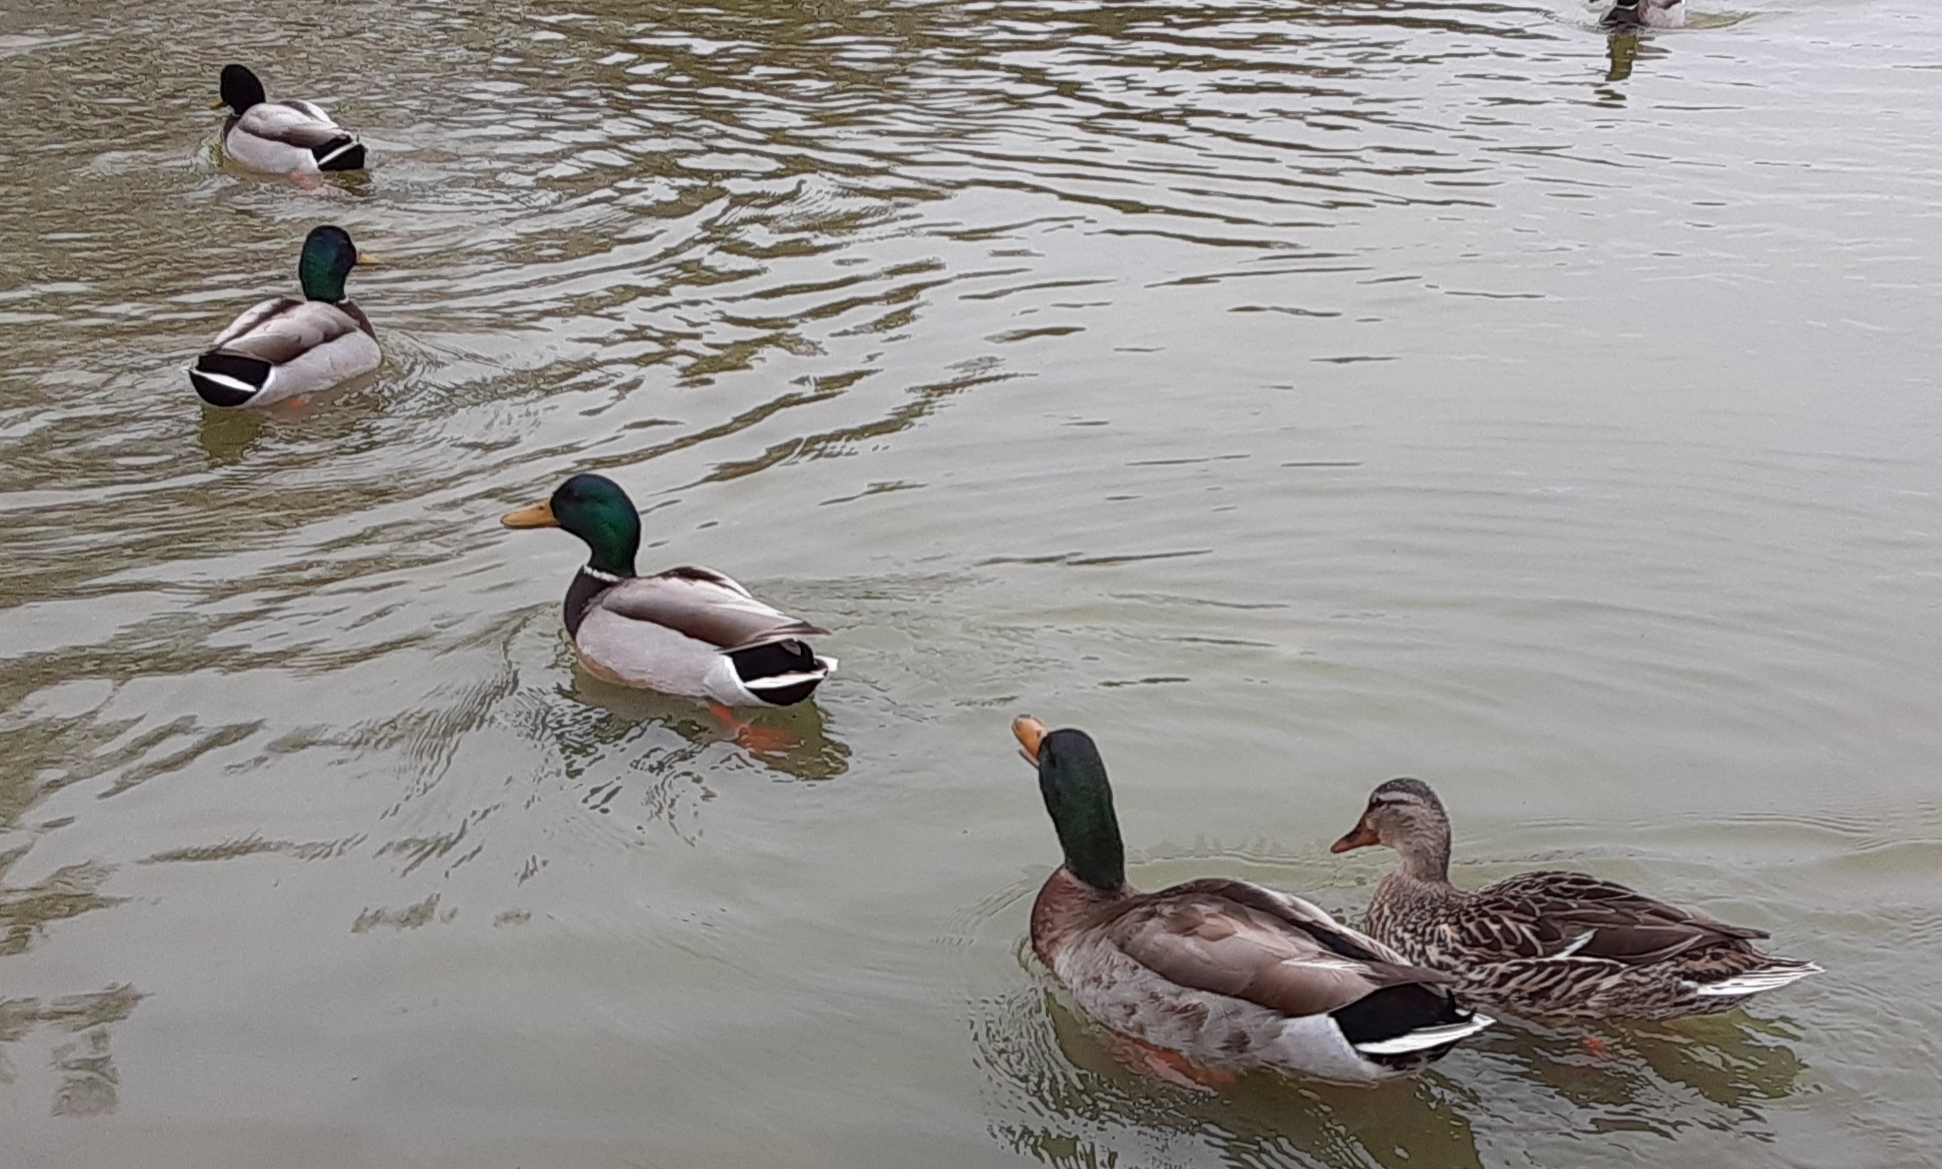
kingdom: Animalia
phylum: Chordata
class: Aves
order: Anseriformes
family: Anatidae
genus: Anas
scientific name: Anas platyrhynchos
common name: Mallard
